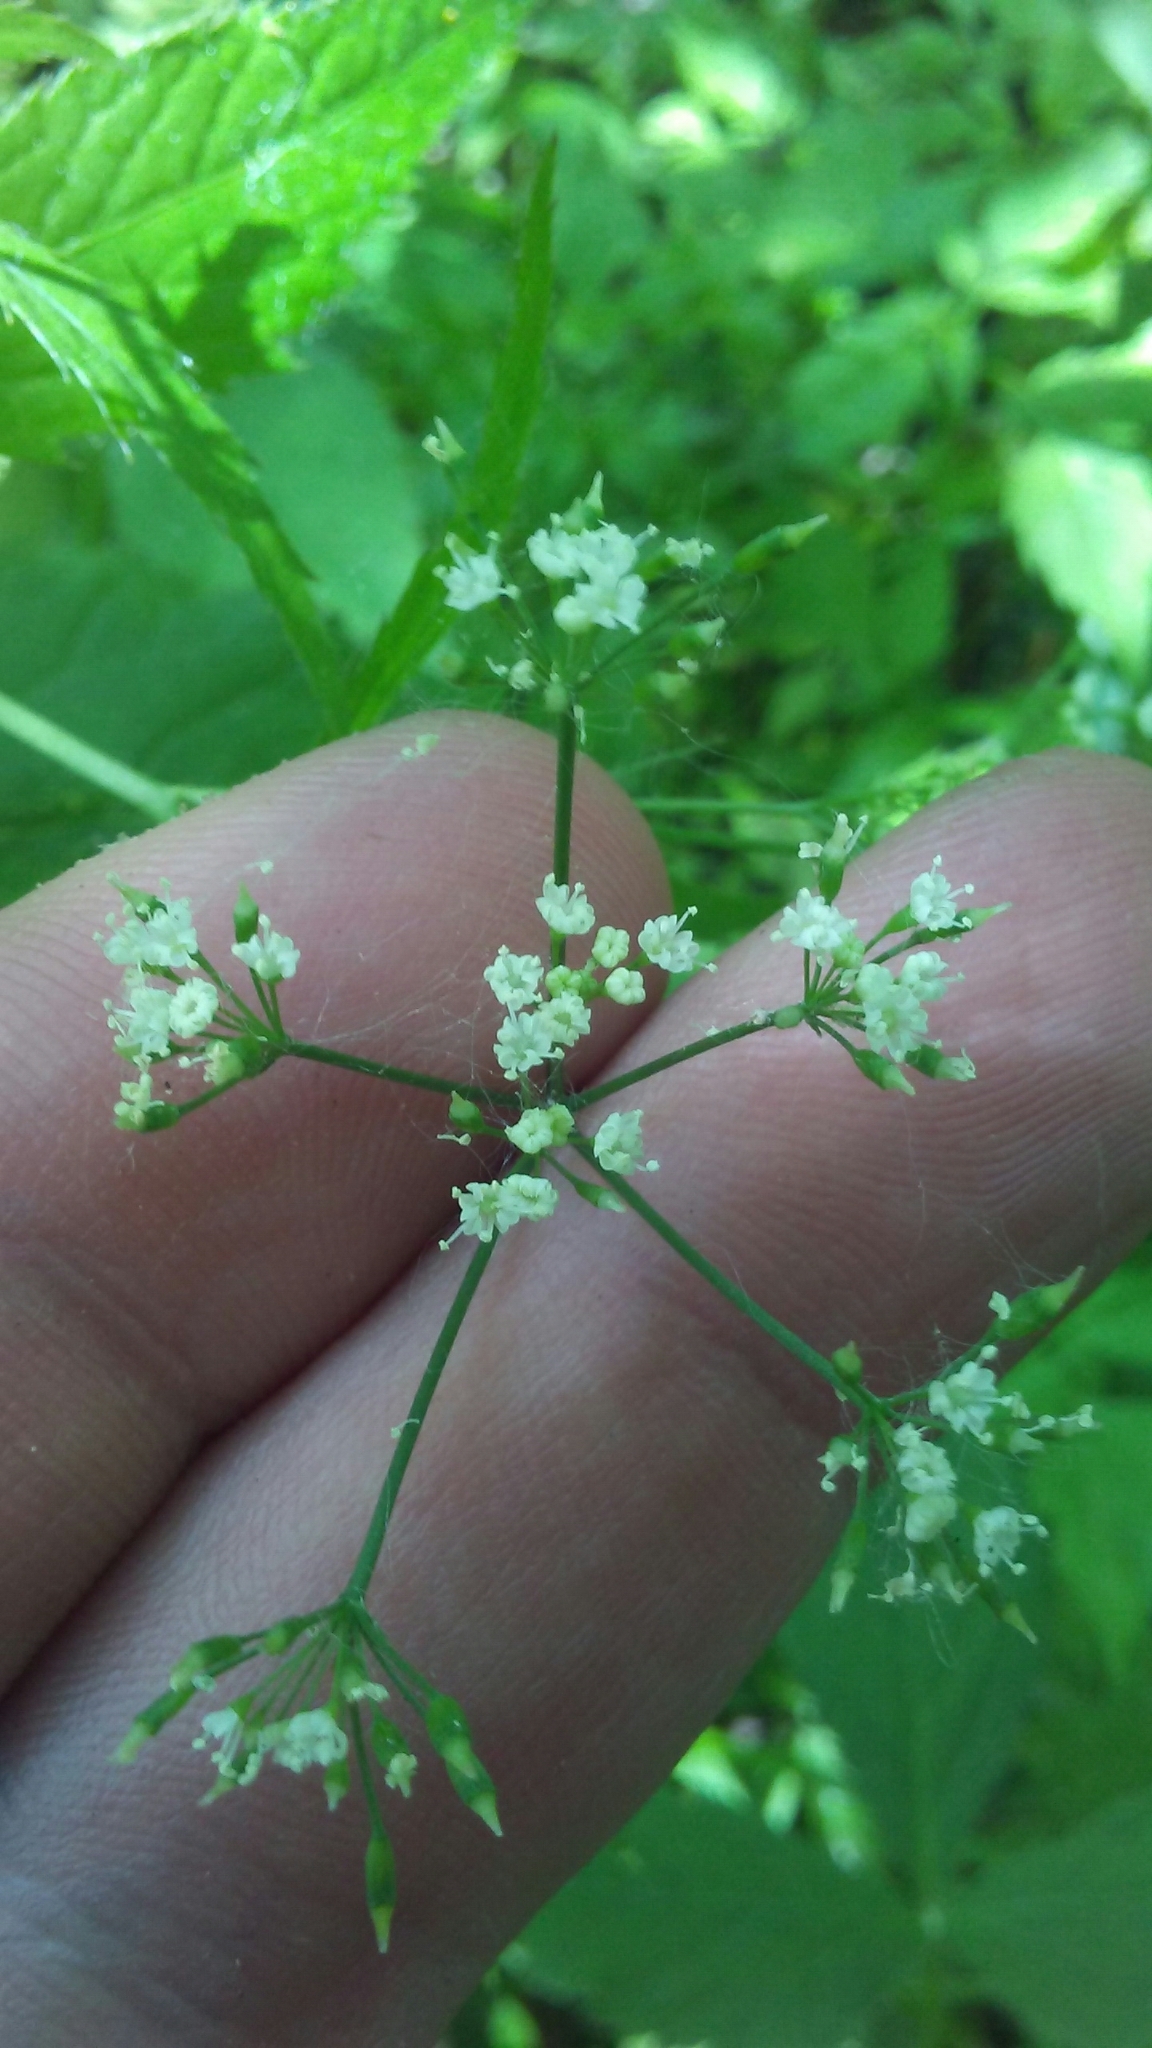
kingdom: Plantae
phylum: Tracheophyta
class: Magnoliopsida
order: Apiales
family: Apiaceae
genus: Cryptotaenia
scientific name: Cryptotaenia canadensis
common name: Honewort
